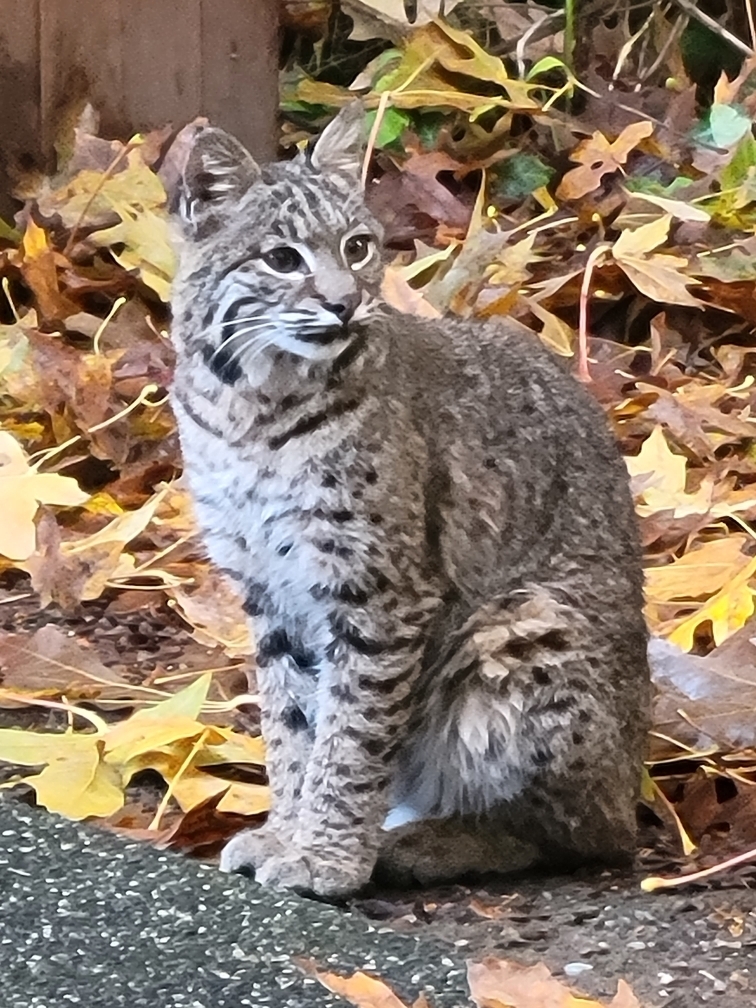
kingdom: Animalia
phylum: Chordata
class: Mammalia
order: Carnivora
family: Felidae
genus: Lynx
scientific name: Lynx rufus
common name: Bobcat
